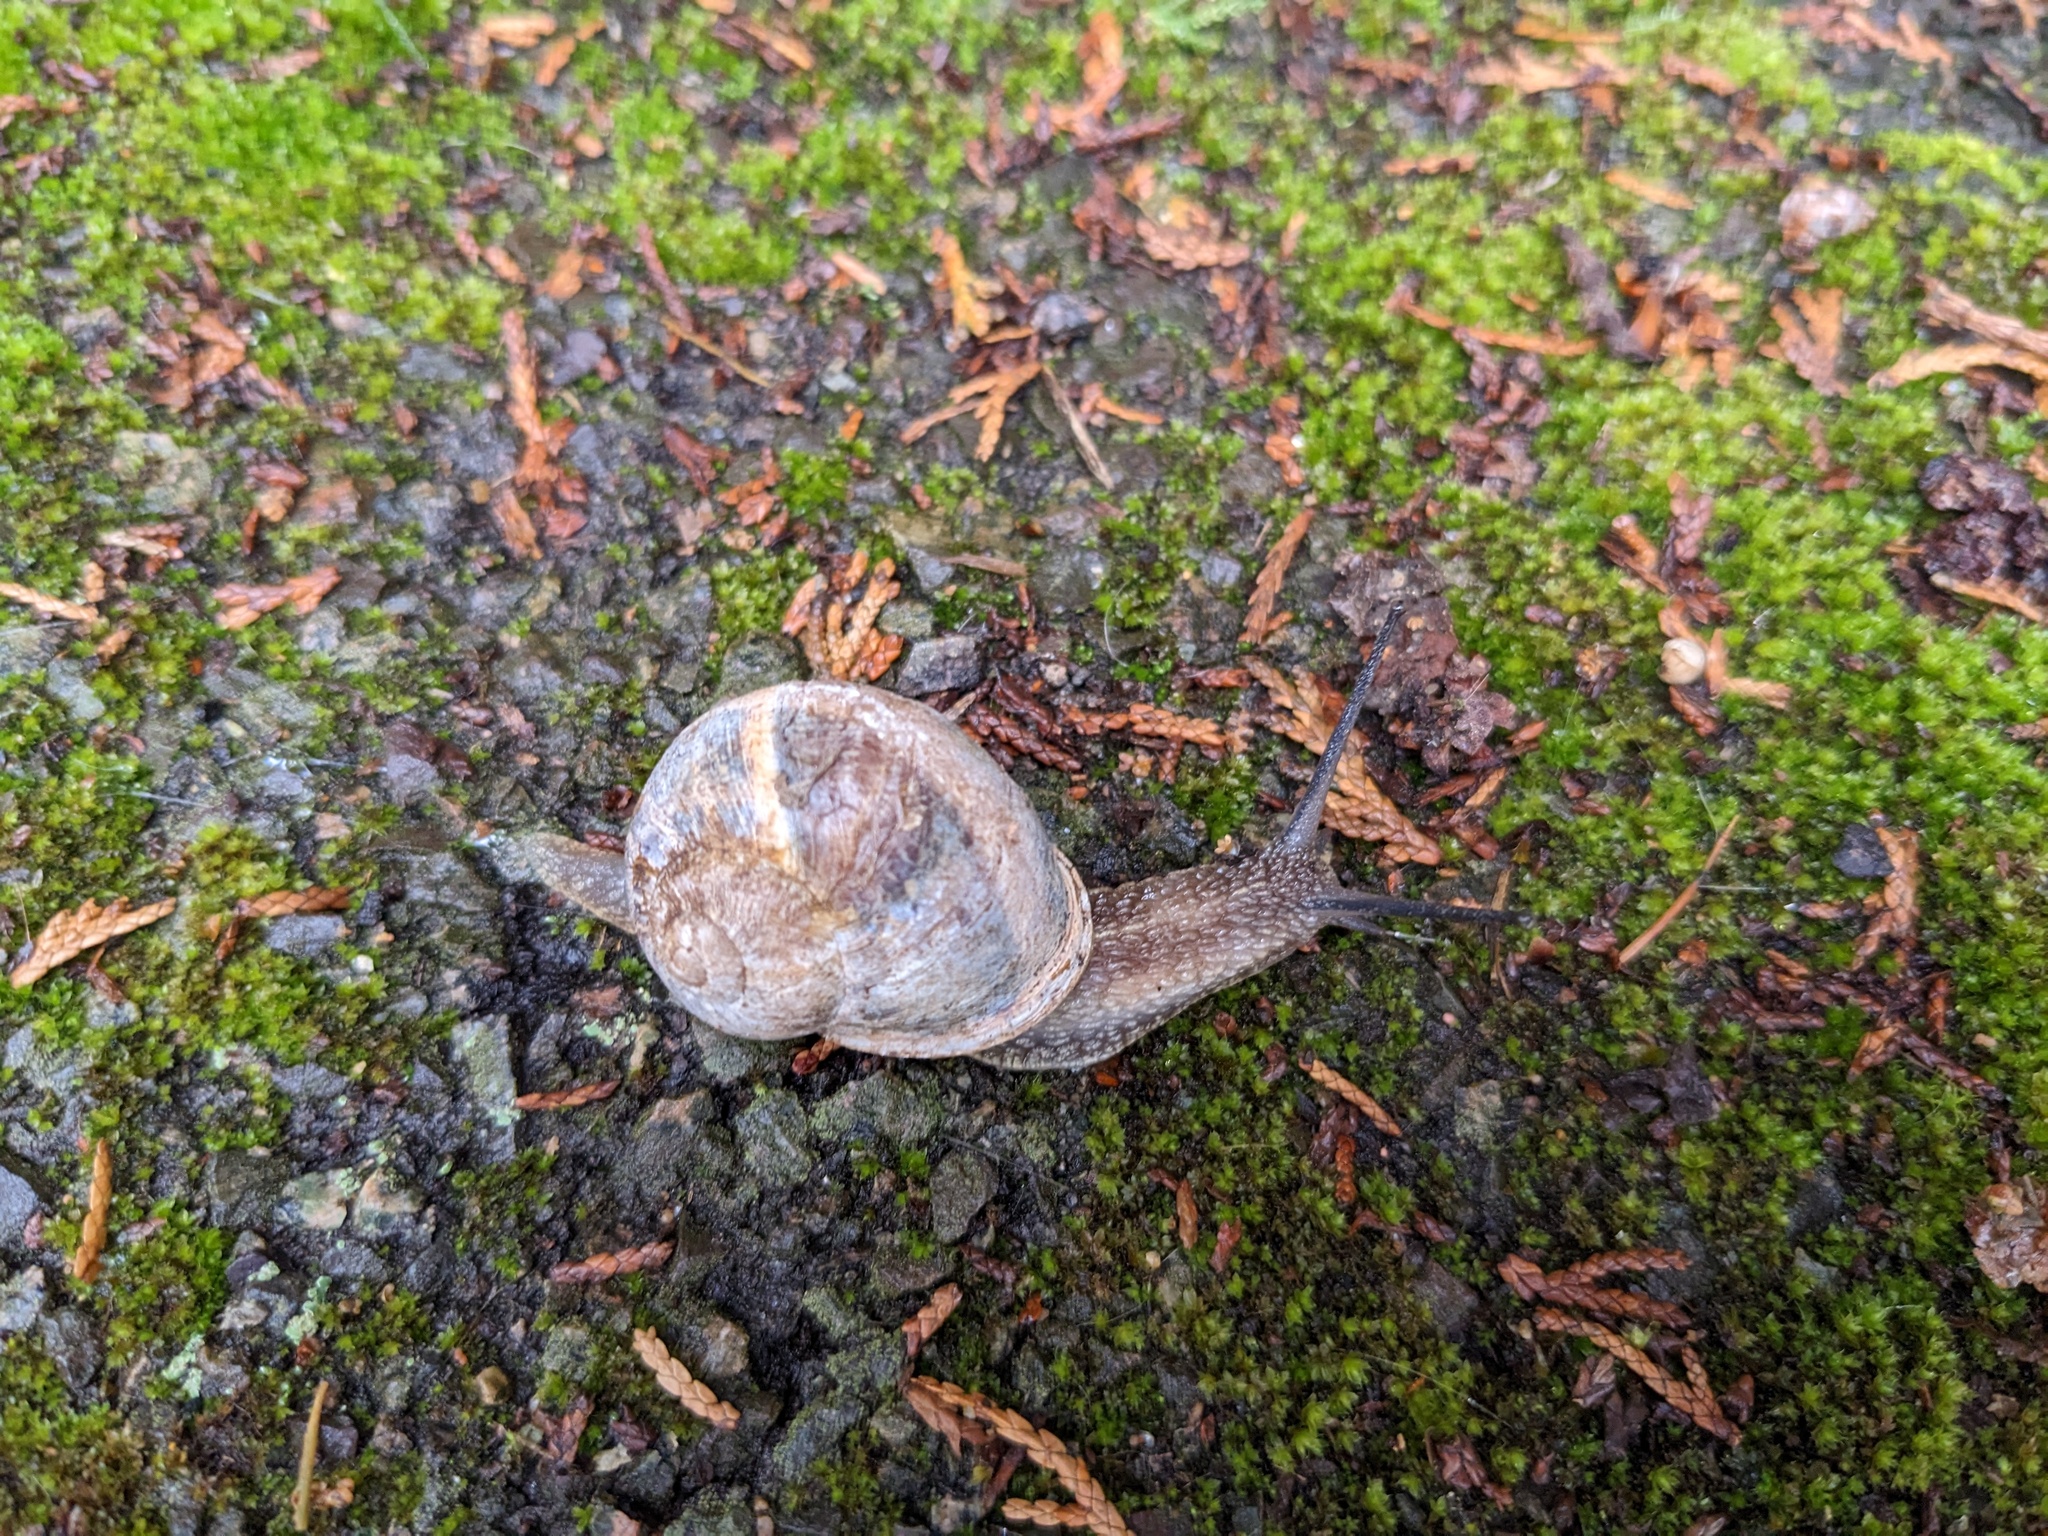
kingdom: Animalia
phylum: Mollusca
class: Gastropoda
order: Stylommatophora
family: Helicidae
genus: Cornu
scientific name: Cornu aspersum
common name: Brown garden snail
